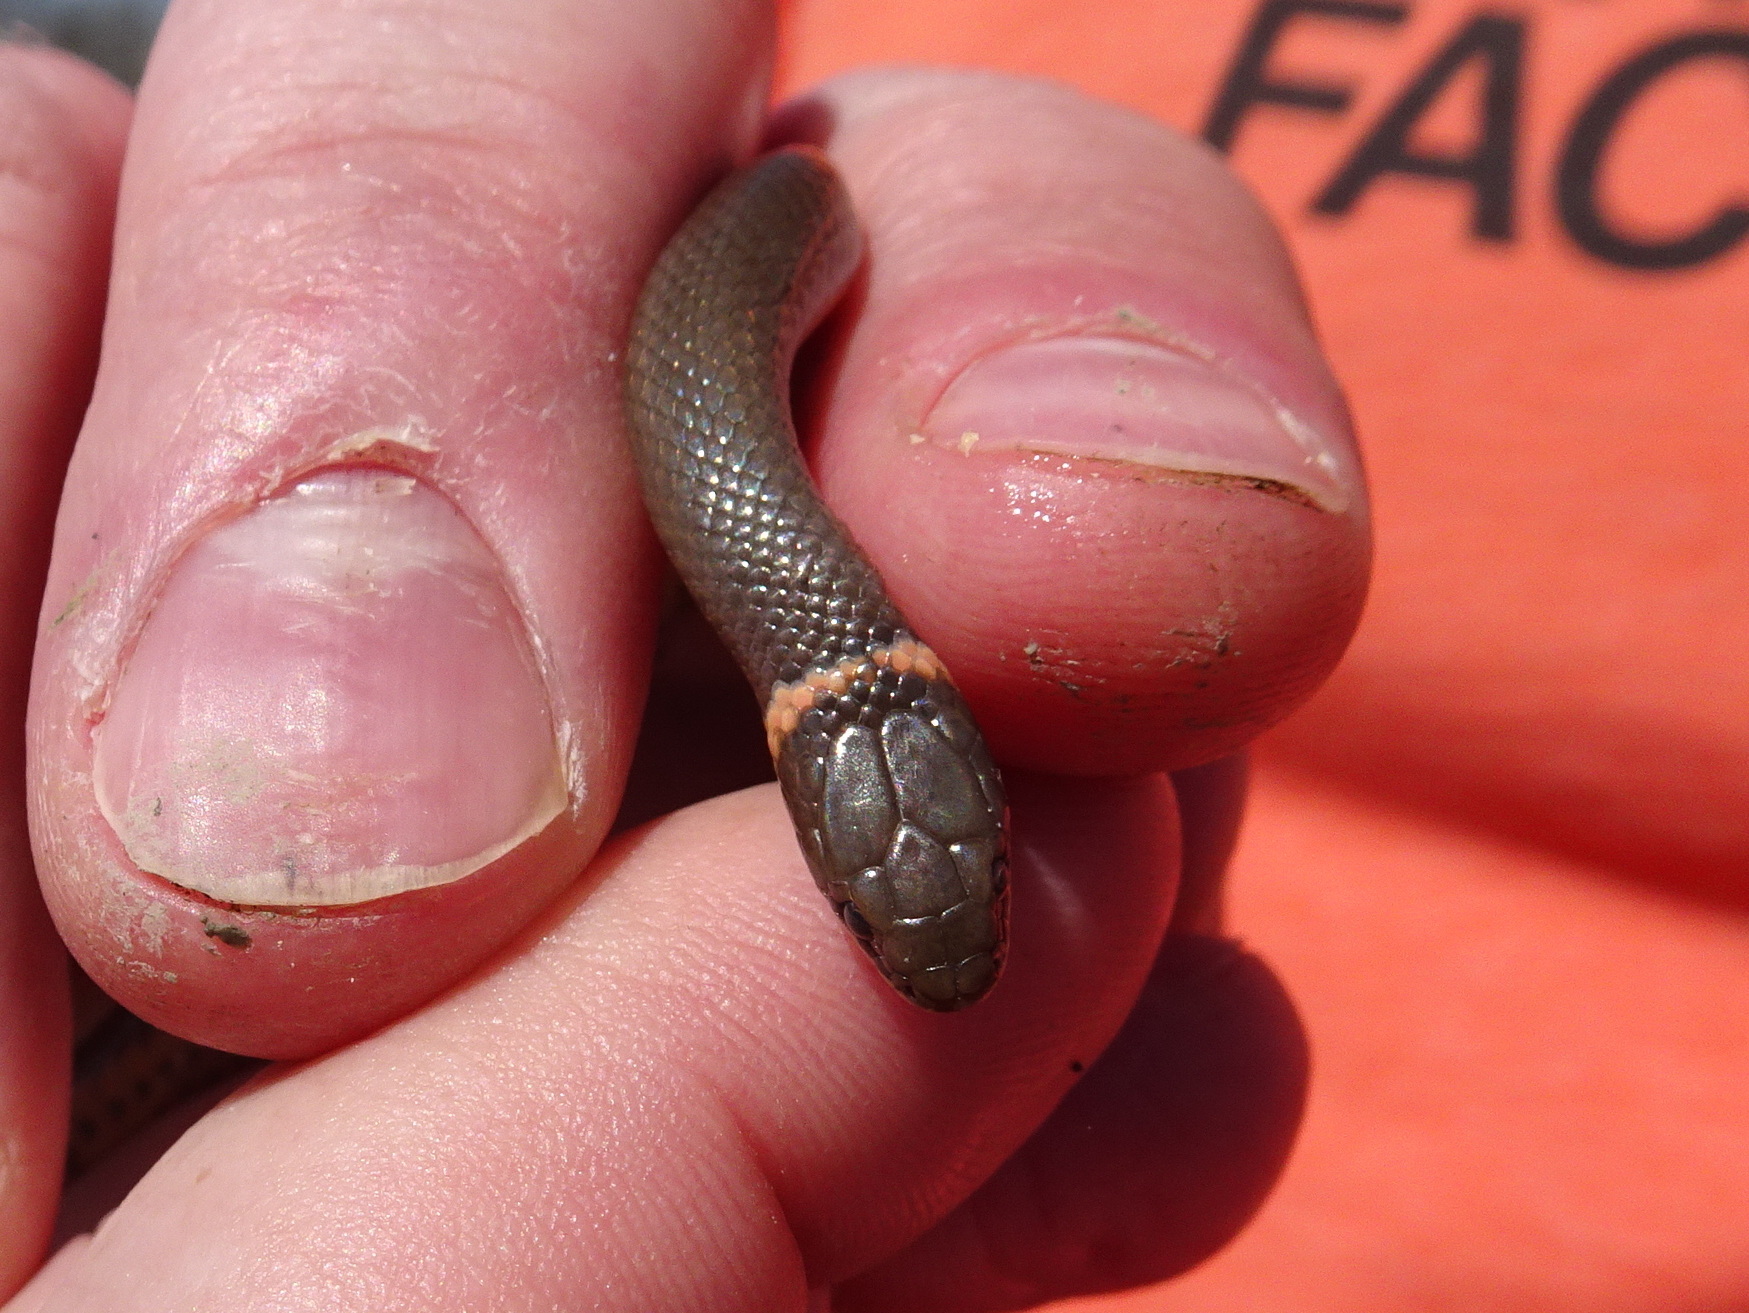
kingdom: Animalia
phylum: Chordata
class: Squamata
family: Colubridae
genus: Diadophis
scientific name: Diadophis punctatus
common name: Ringneck snake
